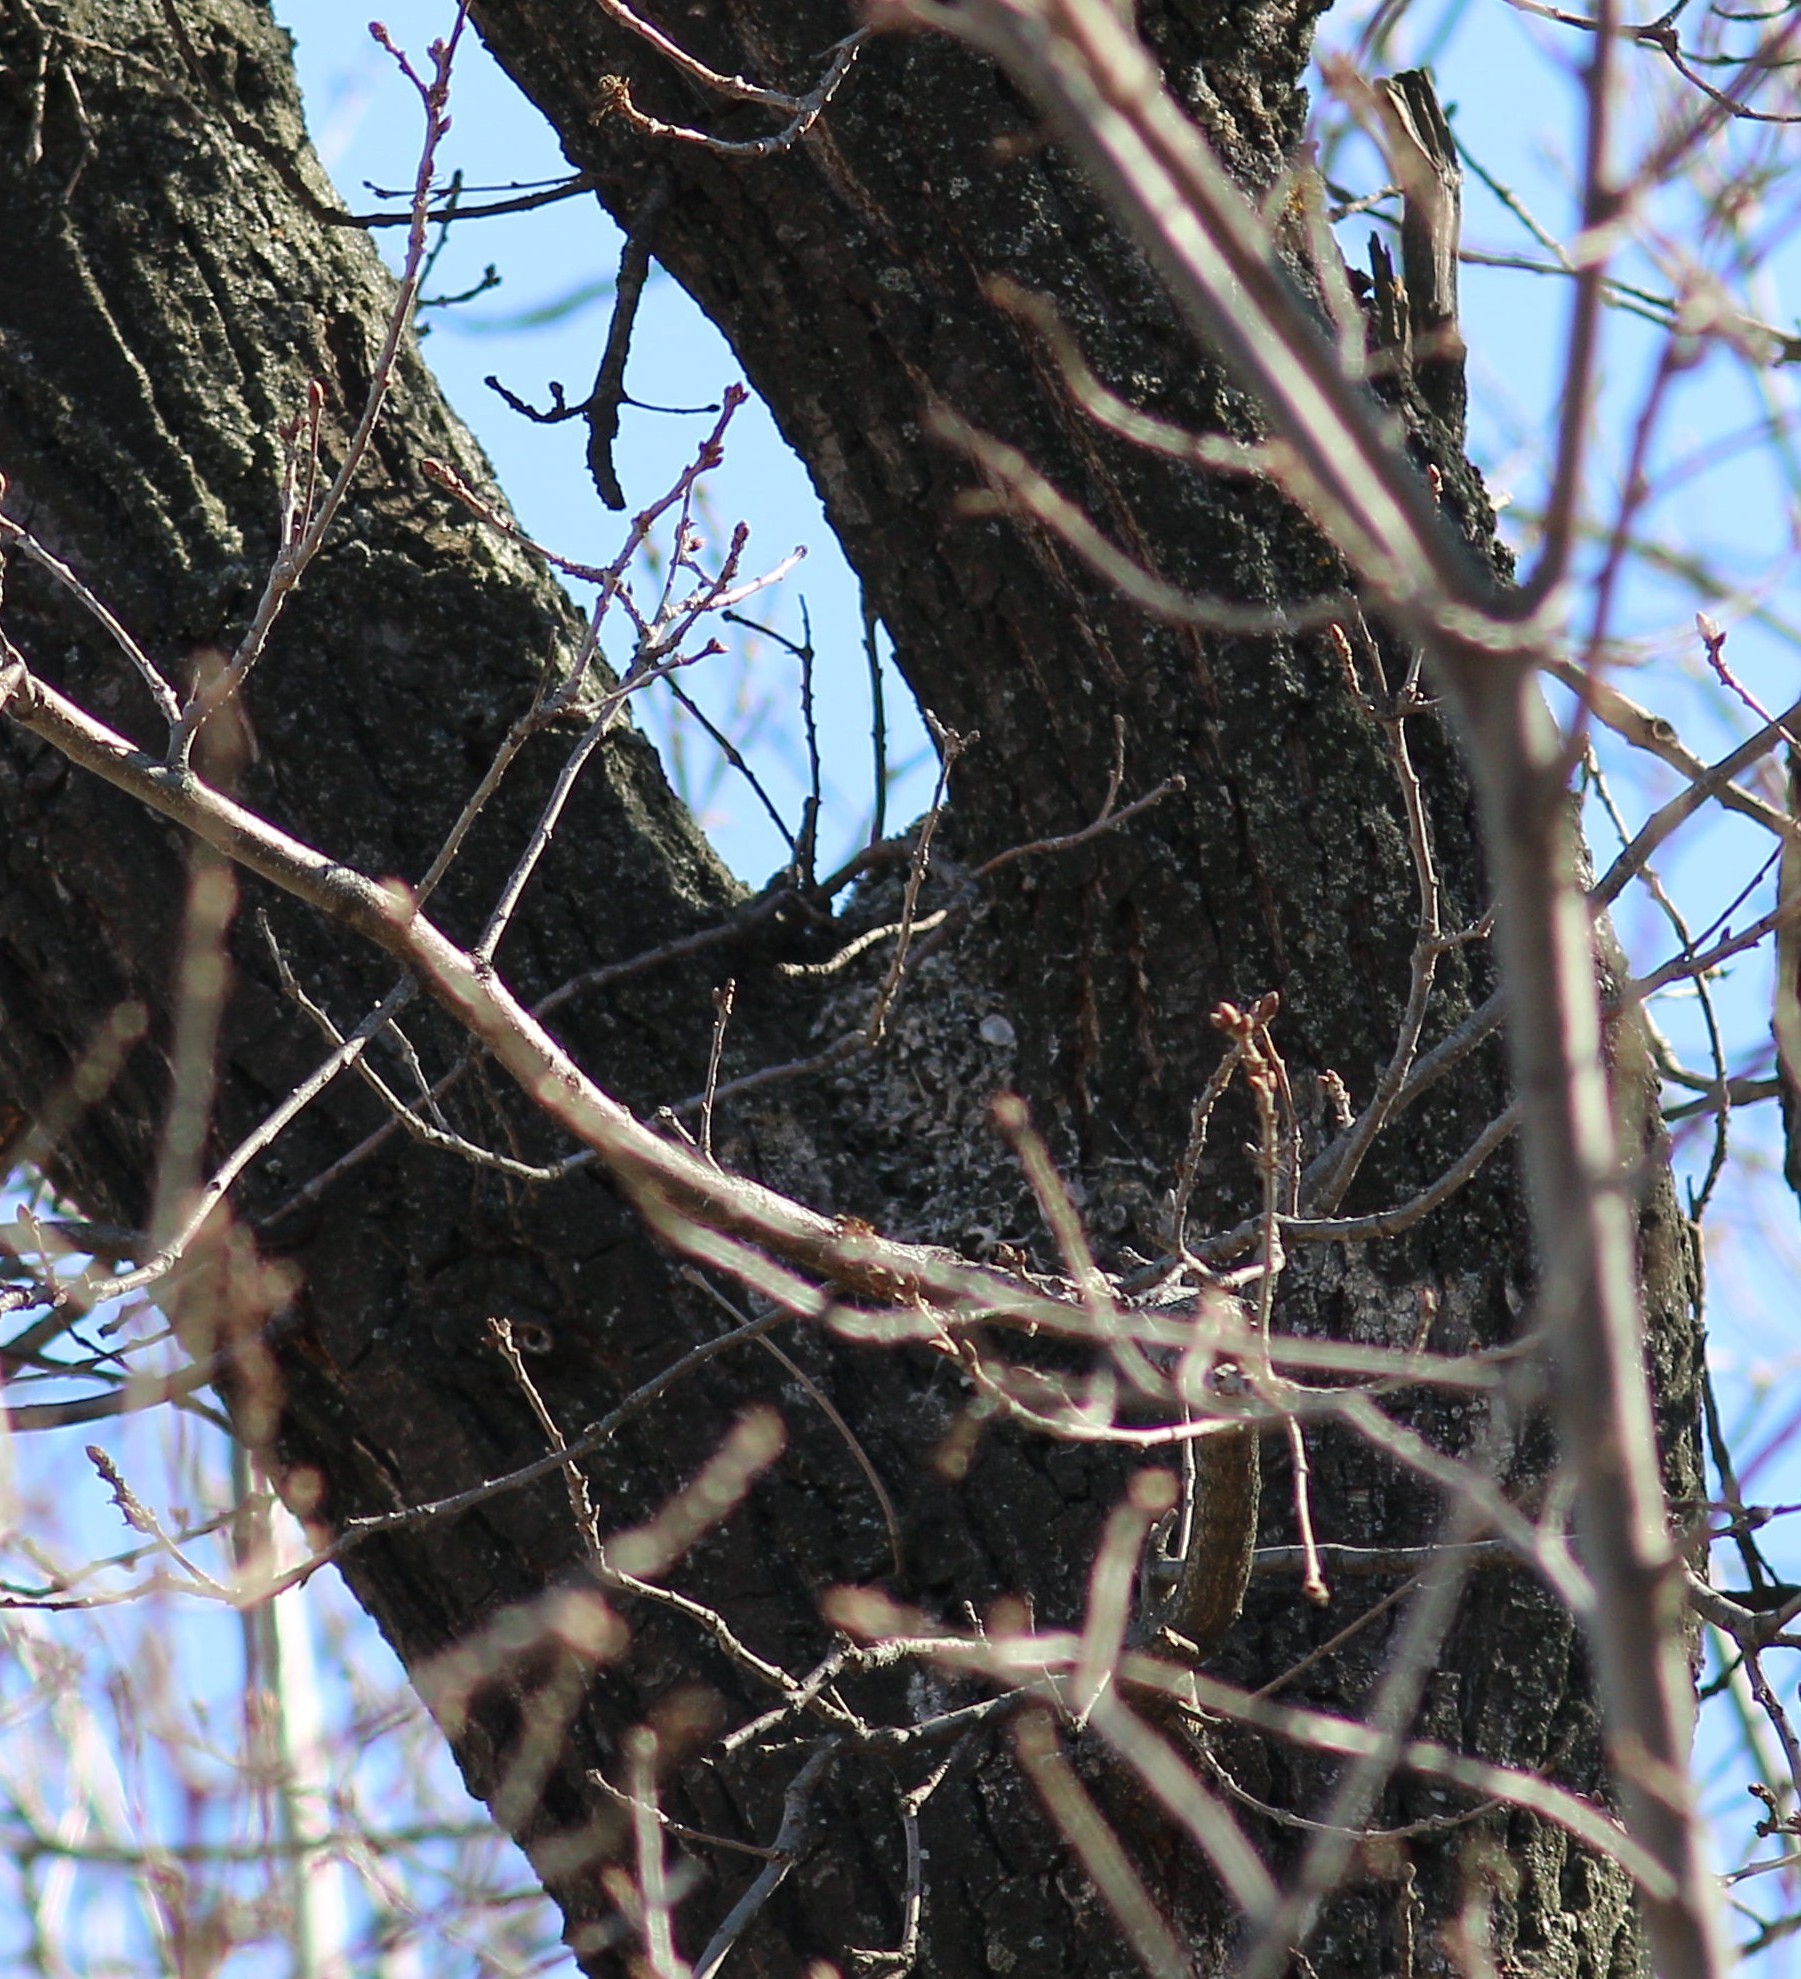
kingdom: Animalia
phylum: Chordata
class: Aves
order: Passeriformes
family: Aegithalidae
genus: Aegithalos
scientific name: Aegithalos caudatus
